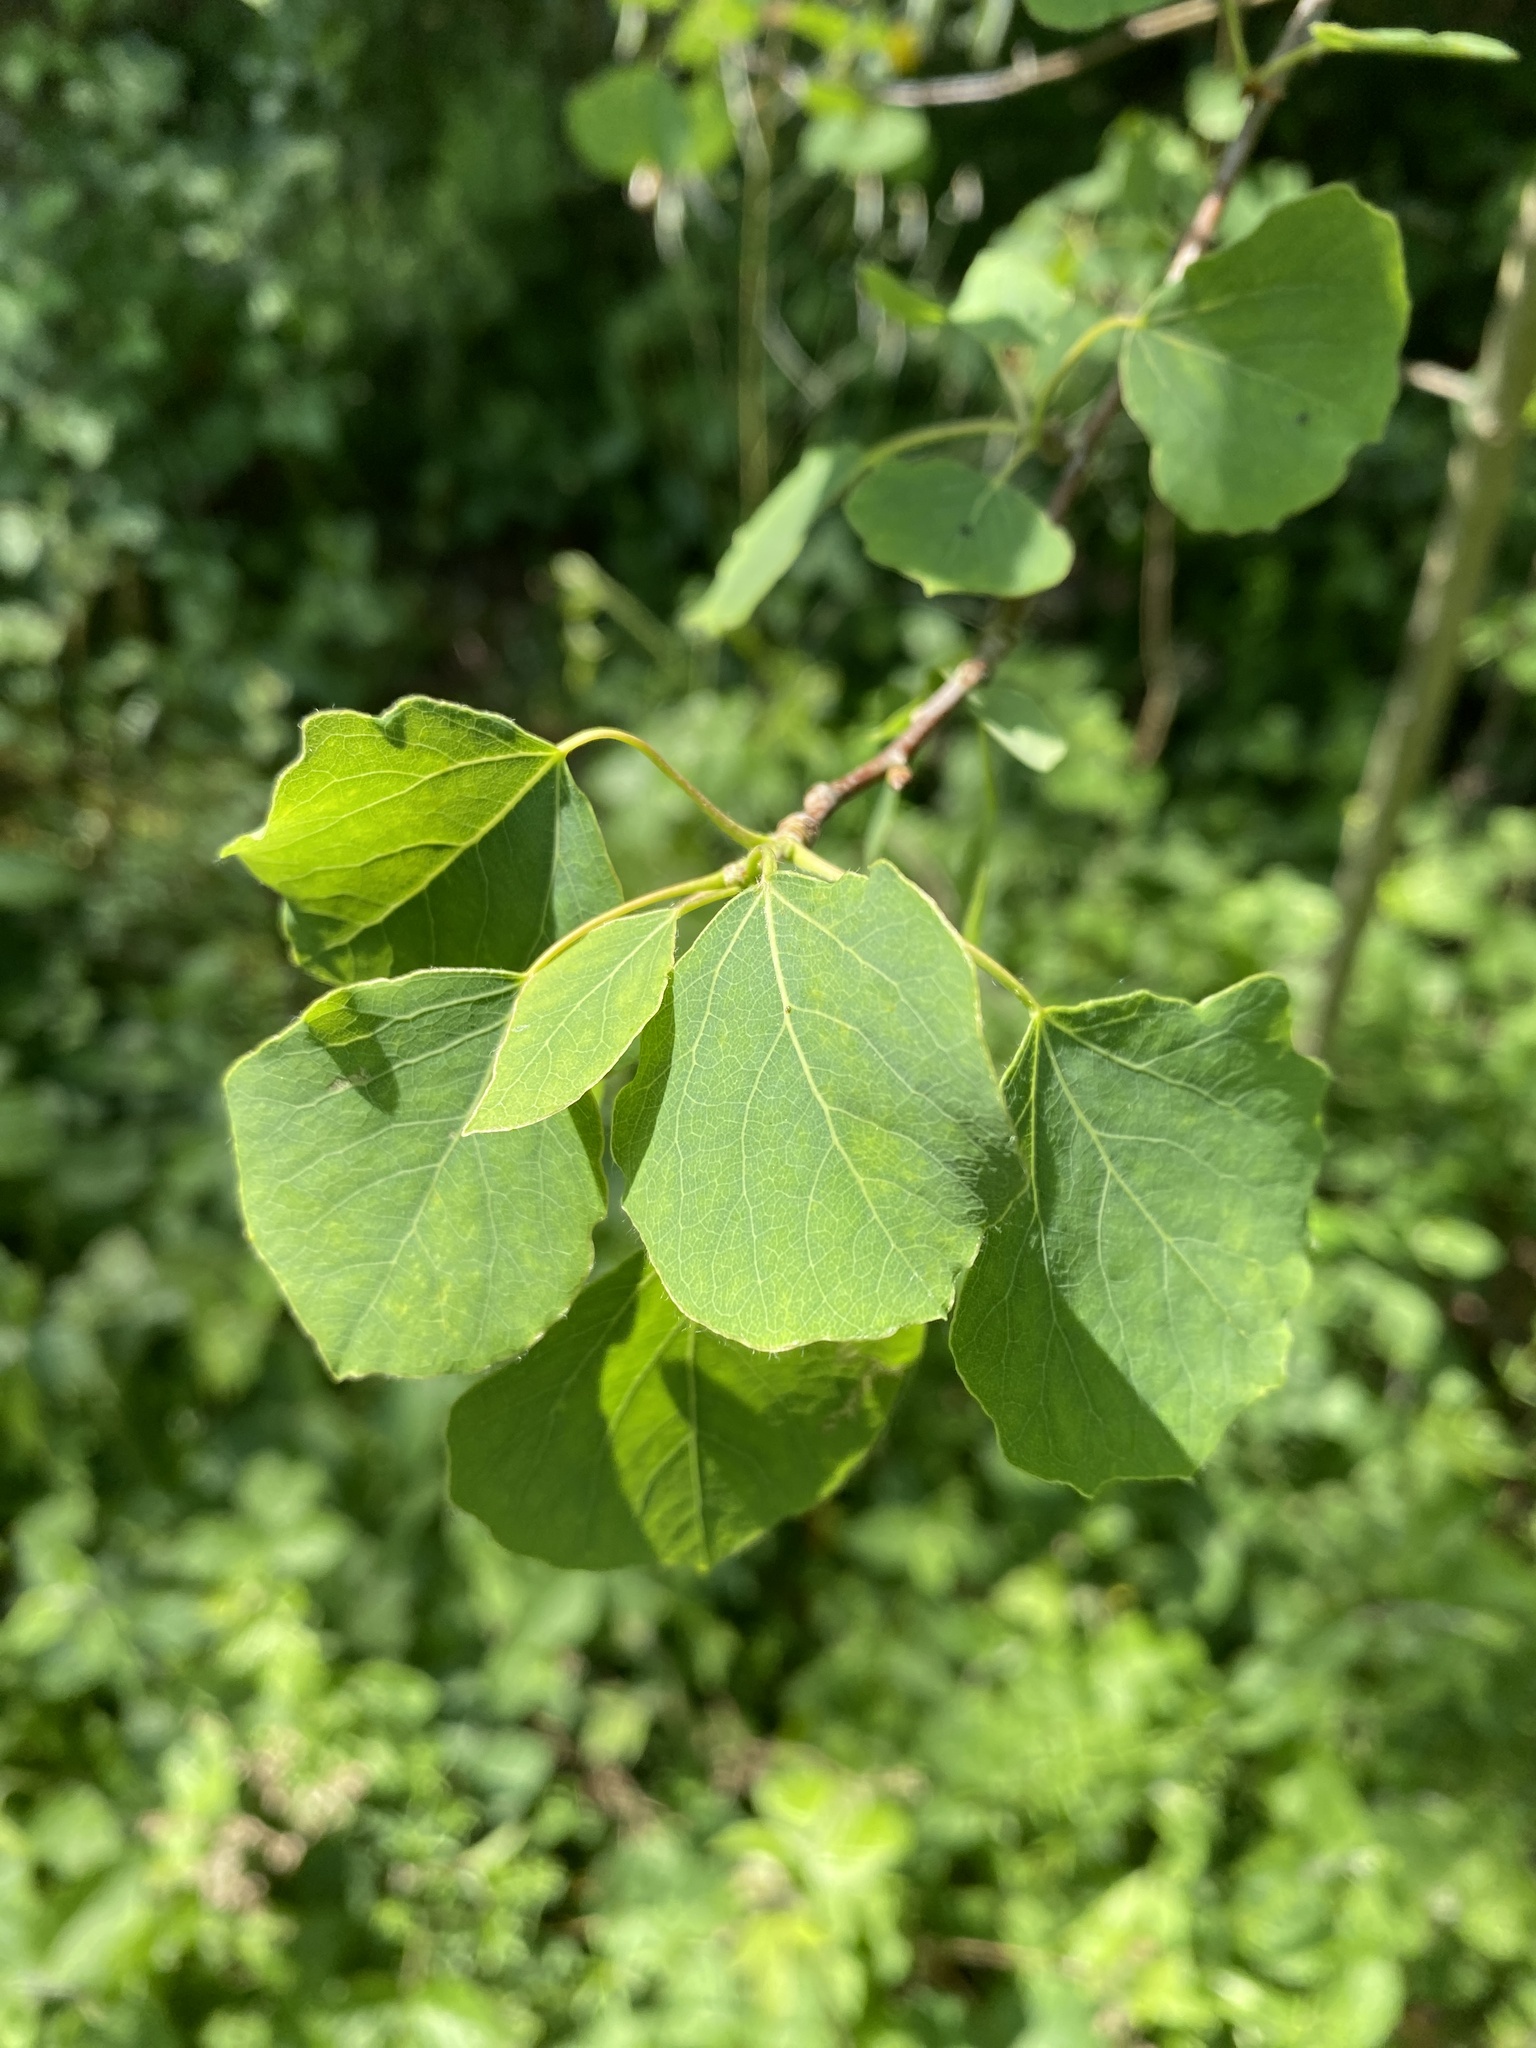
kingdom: Plantae
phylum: Tracheophyta
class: Magnoliopsida
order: Malpighiales
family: Salicaceae
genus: Populus
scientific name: Populus tremula
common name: European aspen
